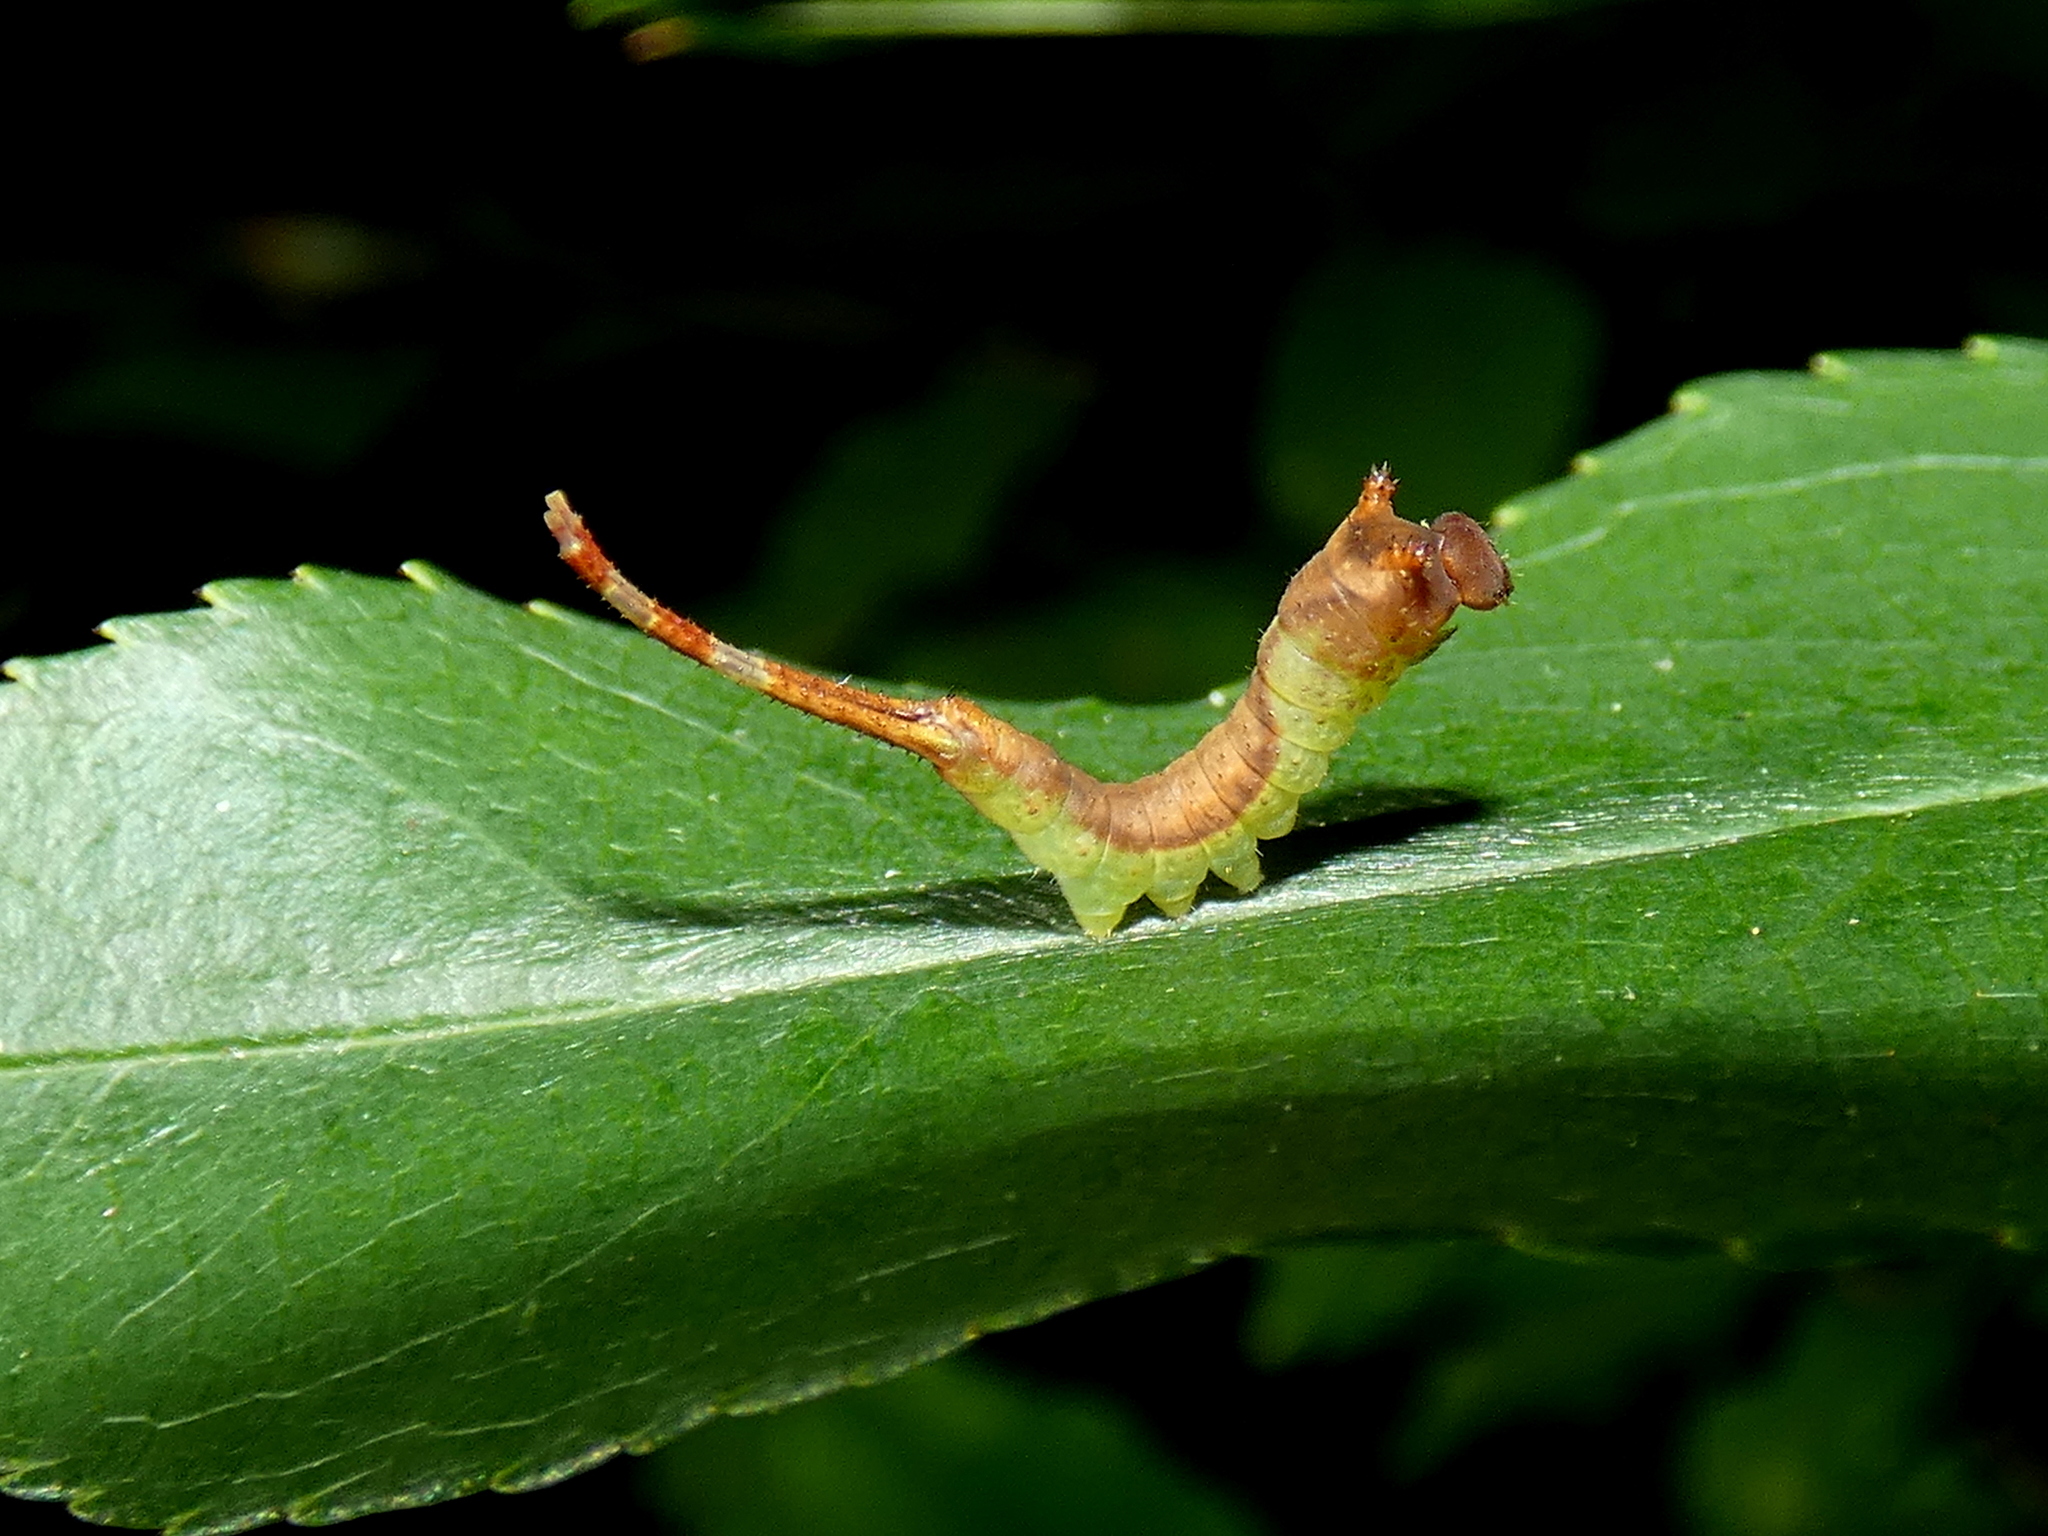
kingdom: Animalia
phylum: Arthropoda
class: Insecta
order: Lepidoptera
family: Notodontidae
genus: Furcula
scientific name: Furcula borealis
